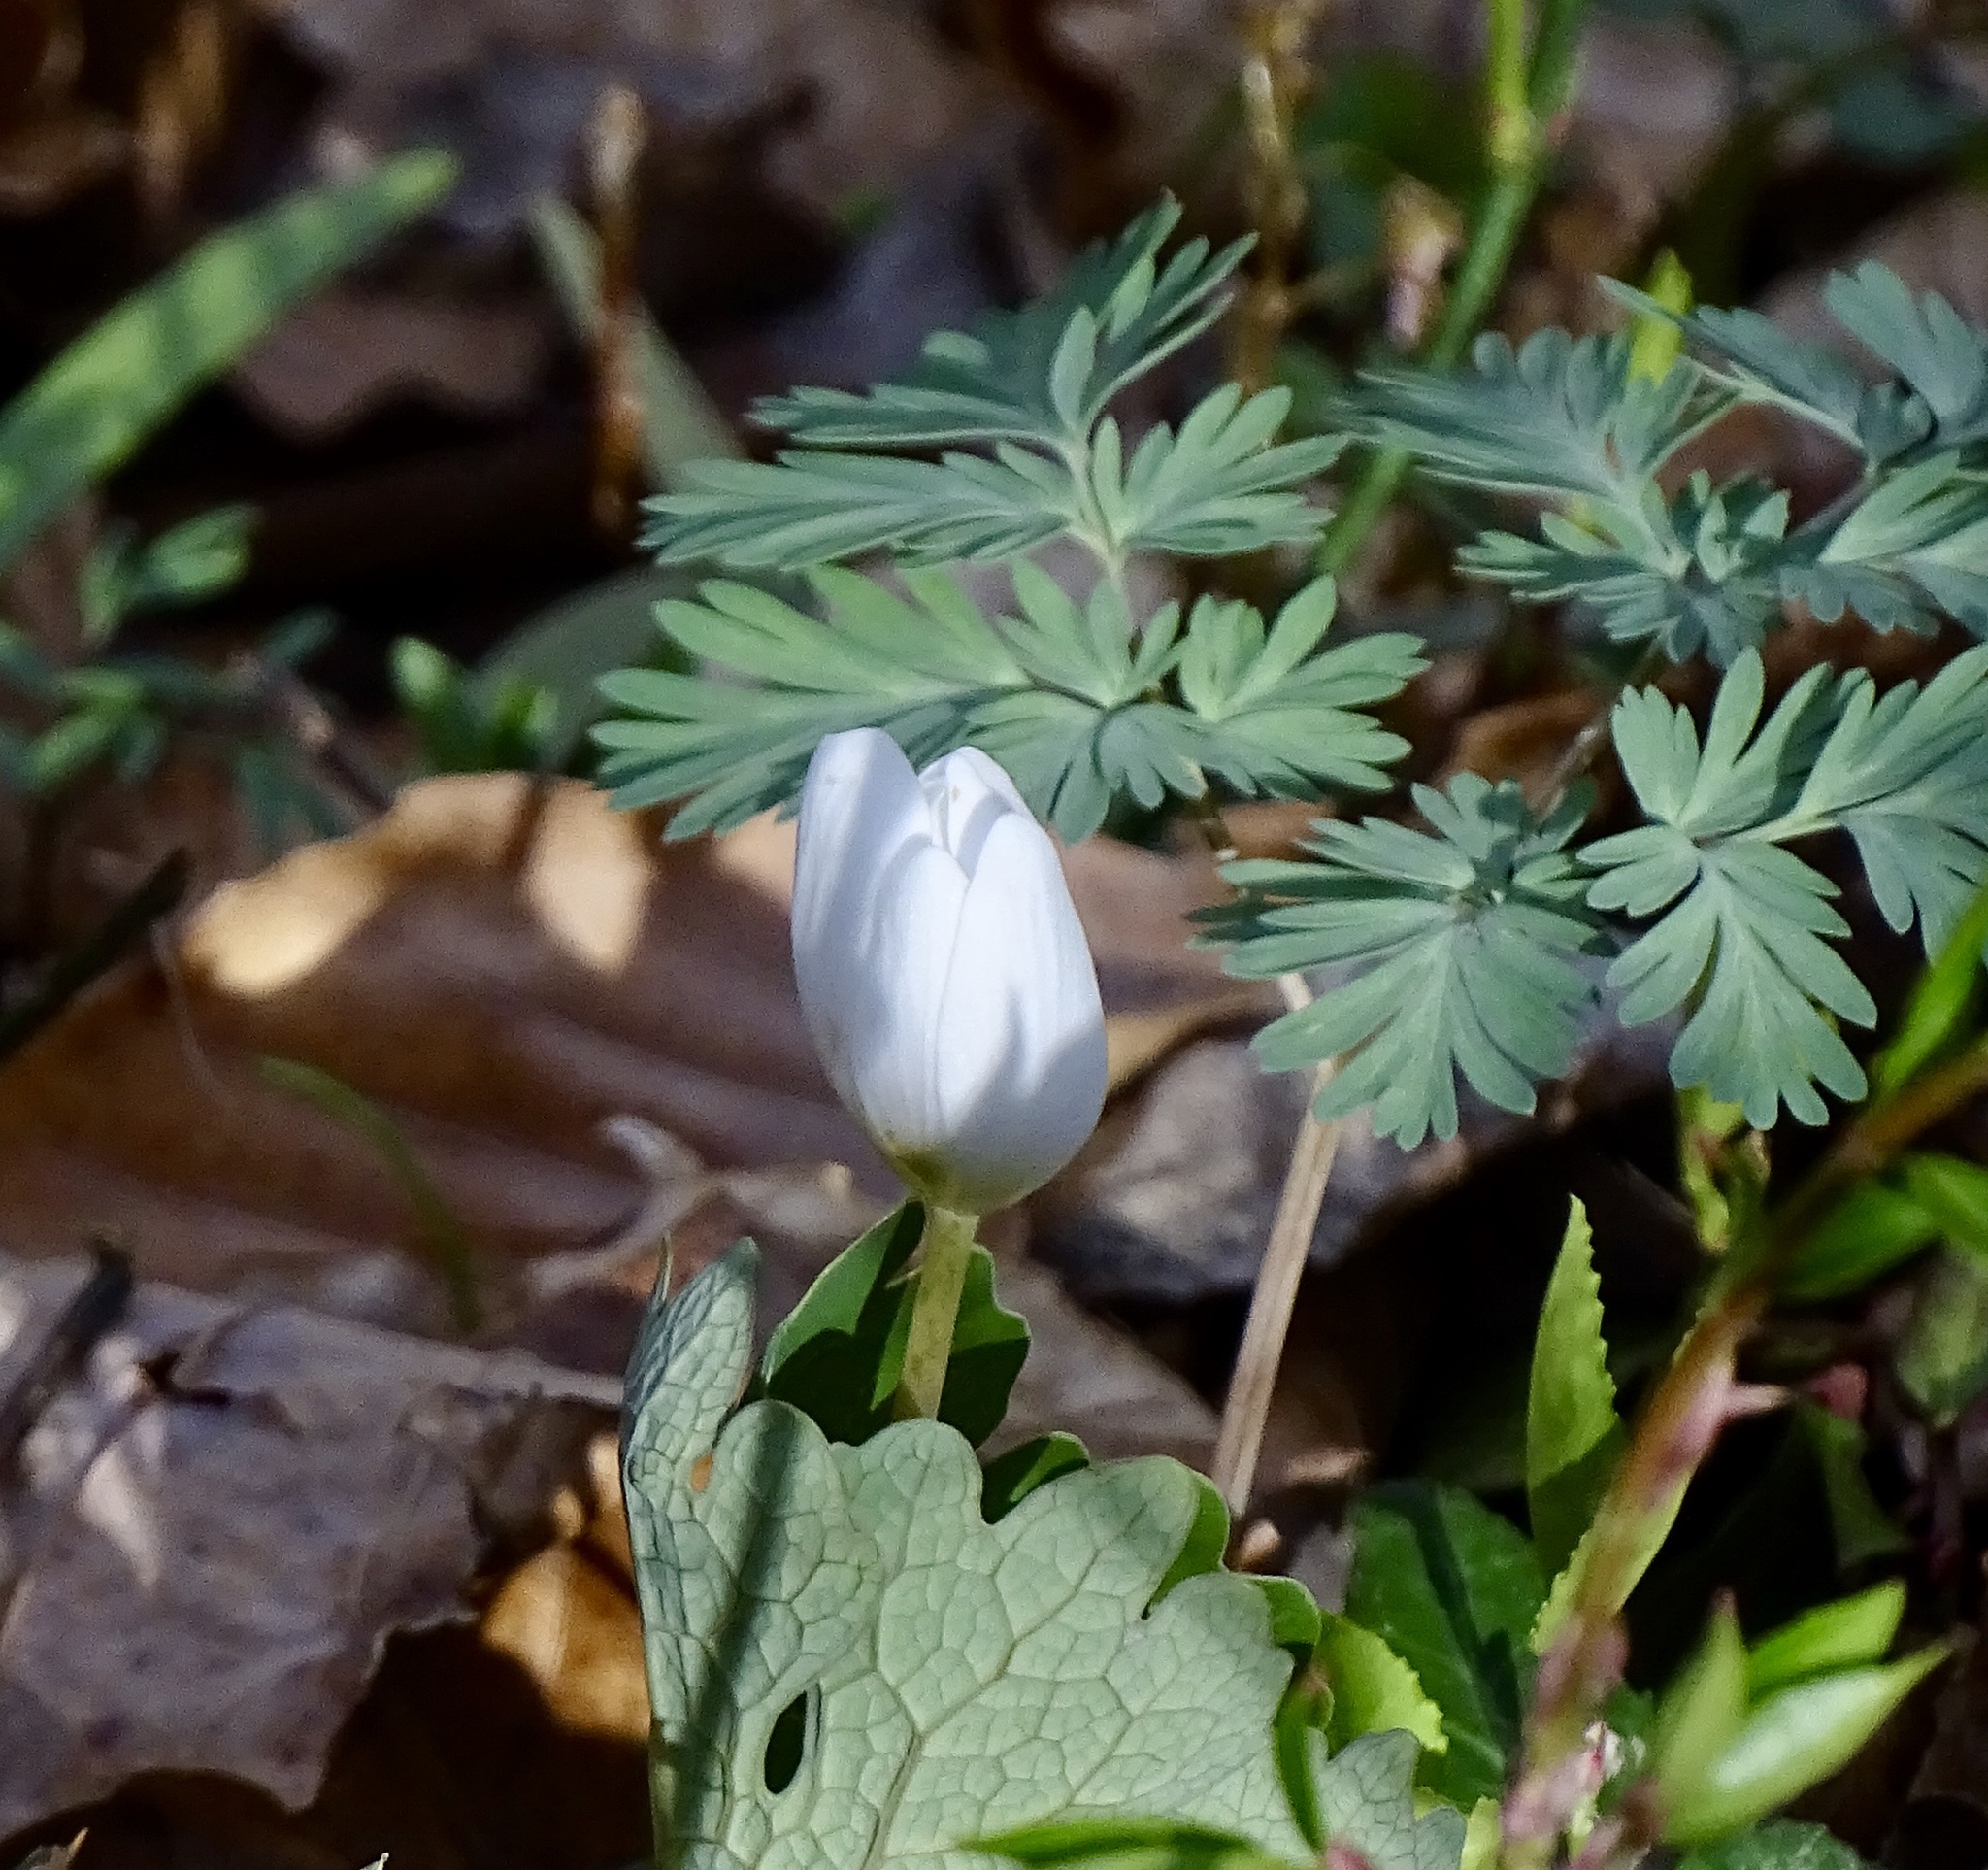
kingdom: Plantae
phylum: Tracheophyta
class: Magnoliopsida
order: Ranunculales
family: Papaveraceae
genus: Sanguinaria
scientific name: Sanguinaria canadensis
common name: Bloodroot
